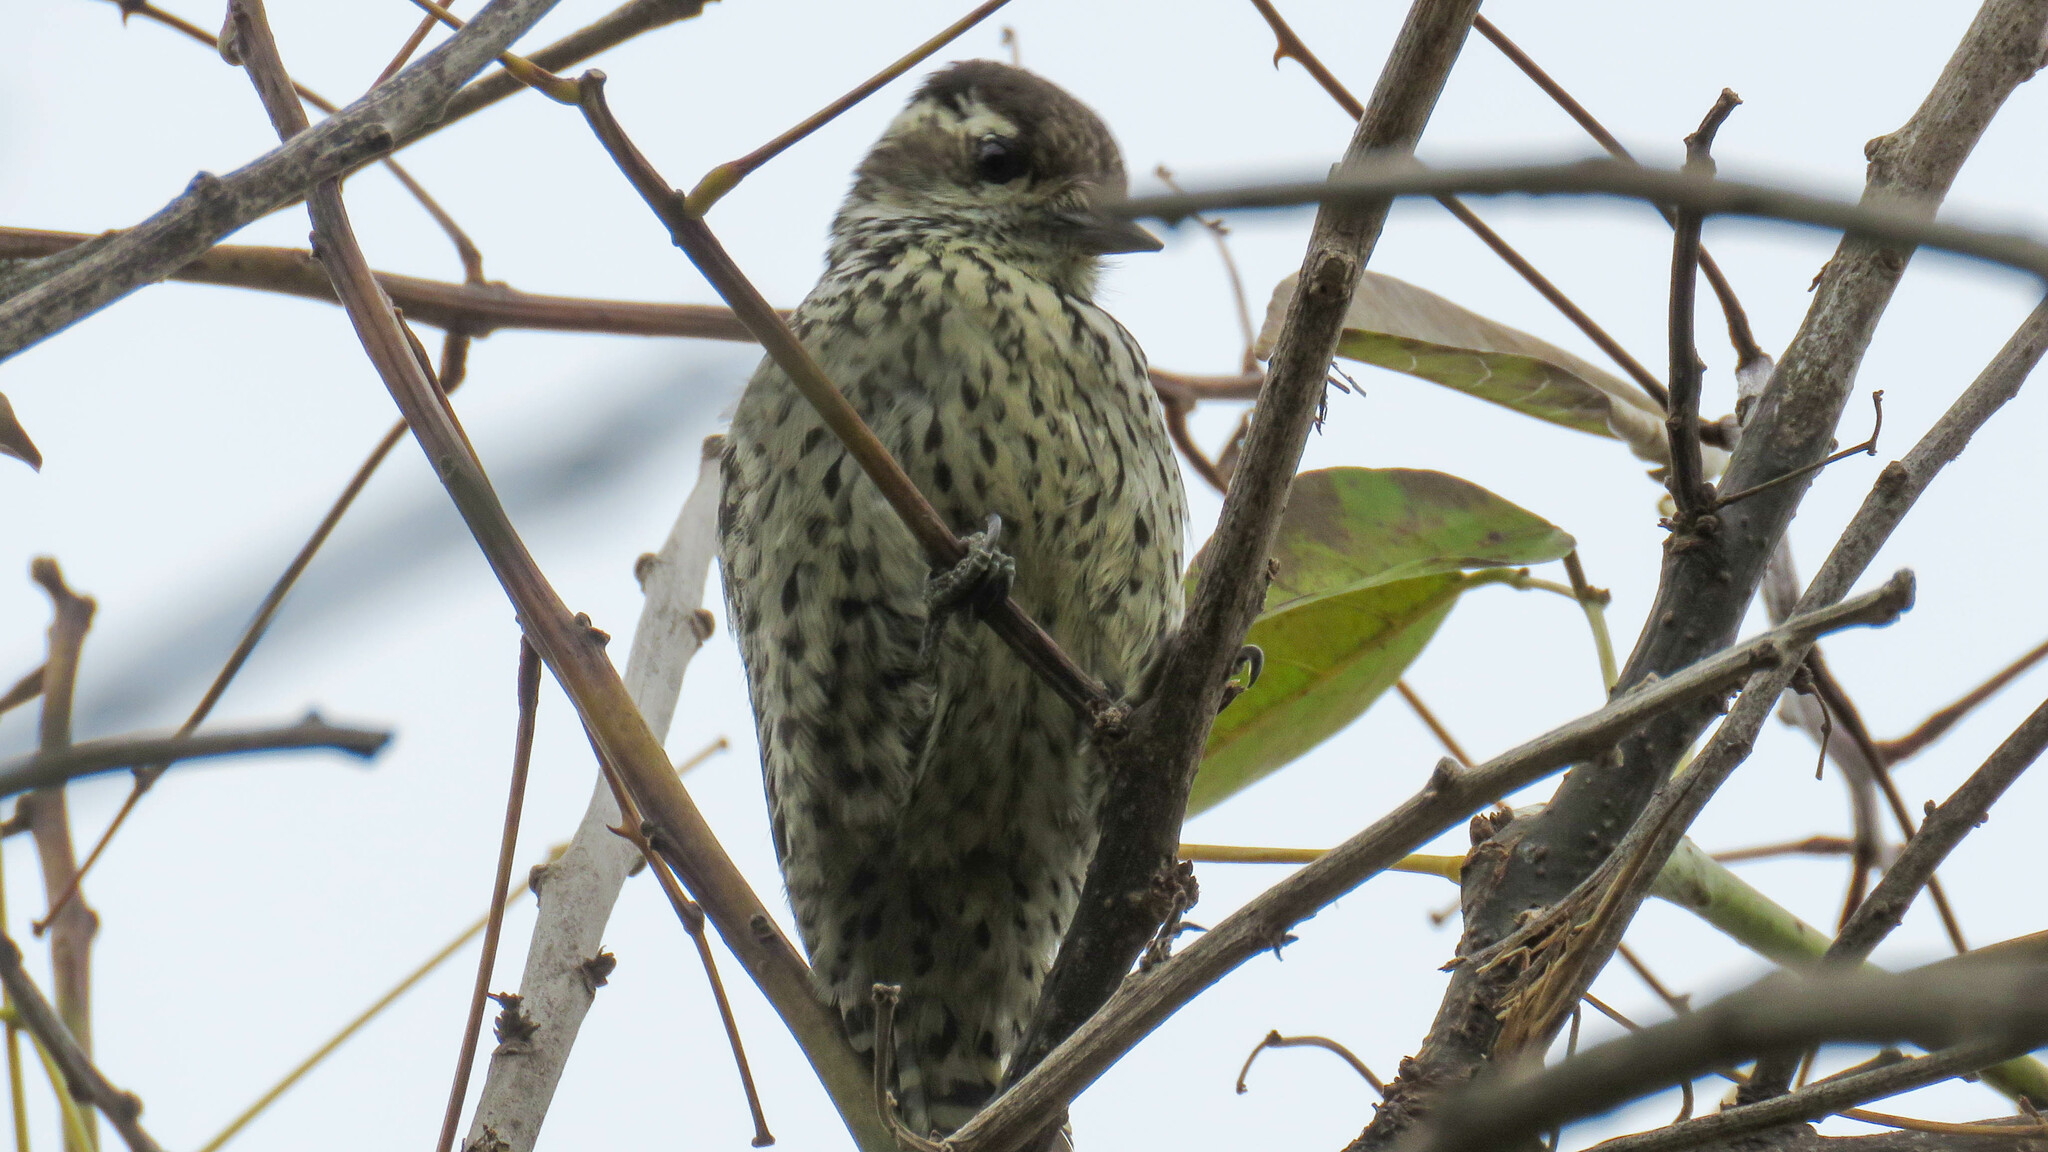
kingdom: Animalia
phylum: Chordata
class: Aves
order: Piciformes
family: Picidae
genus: Veniliornis
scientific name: Veniliornis mixtus
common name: Checkered woodpecker
